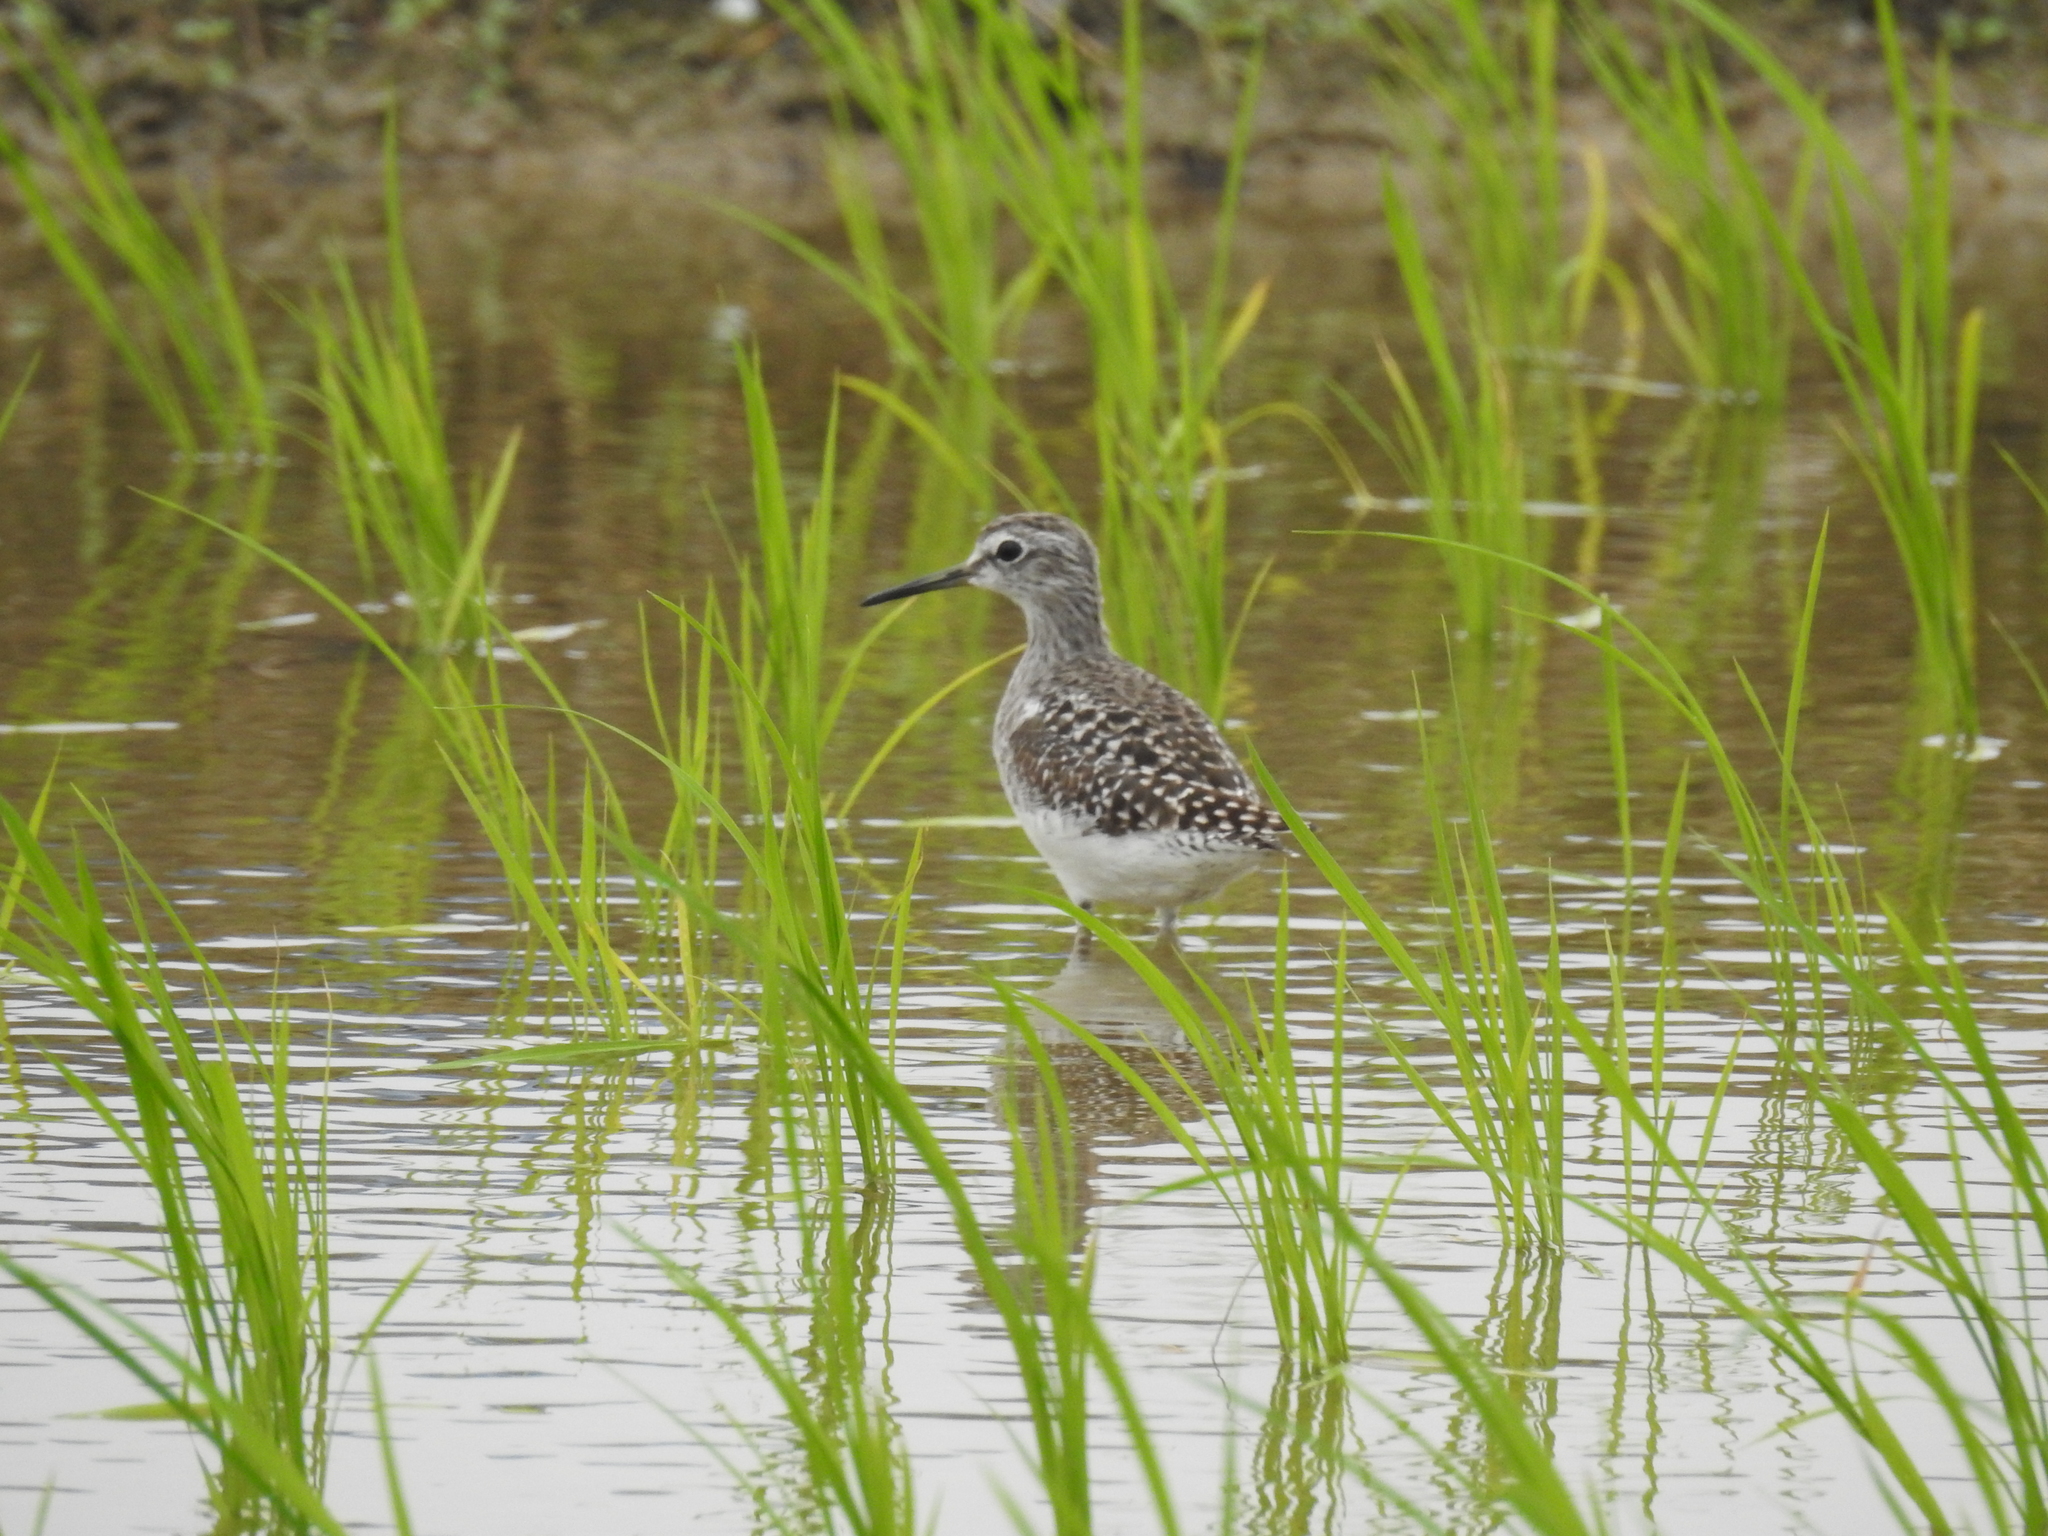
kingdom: Animalia
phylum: Chordata
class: Aves
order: Charadriiformes
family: Scolopacidae
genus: Tringa
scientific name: Tringa glareola
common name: Wood sandpiper
